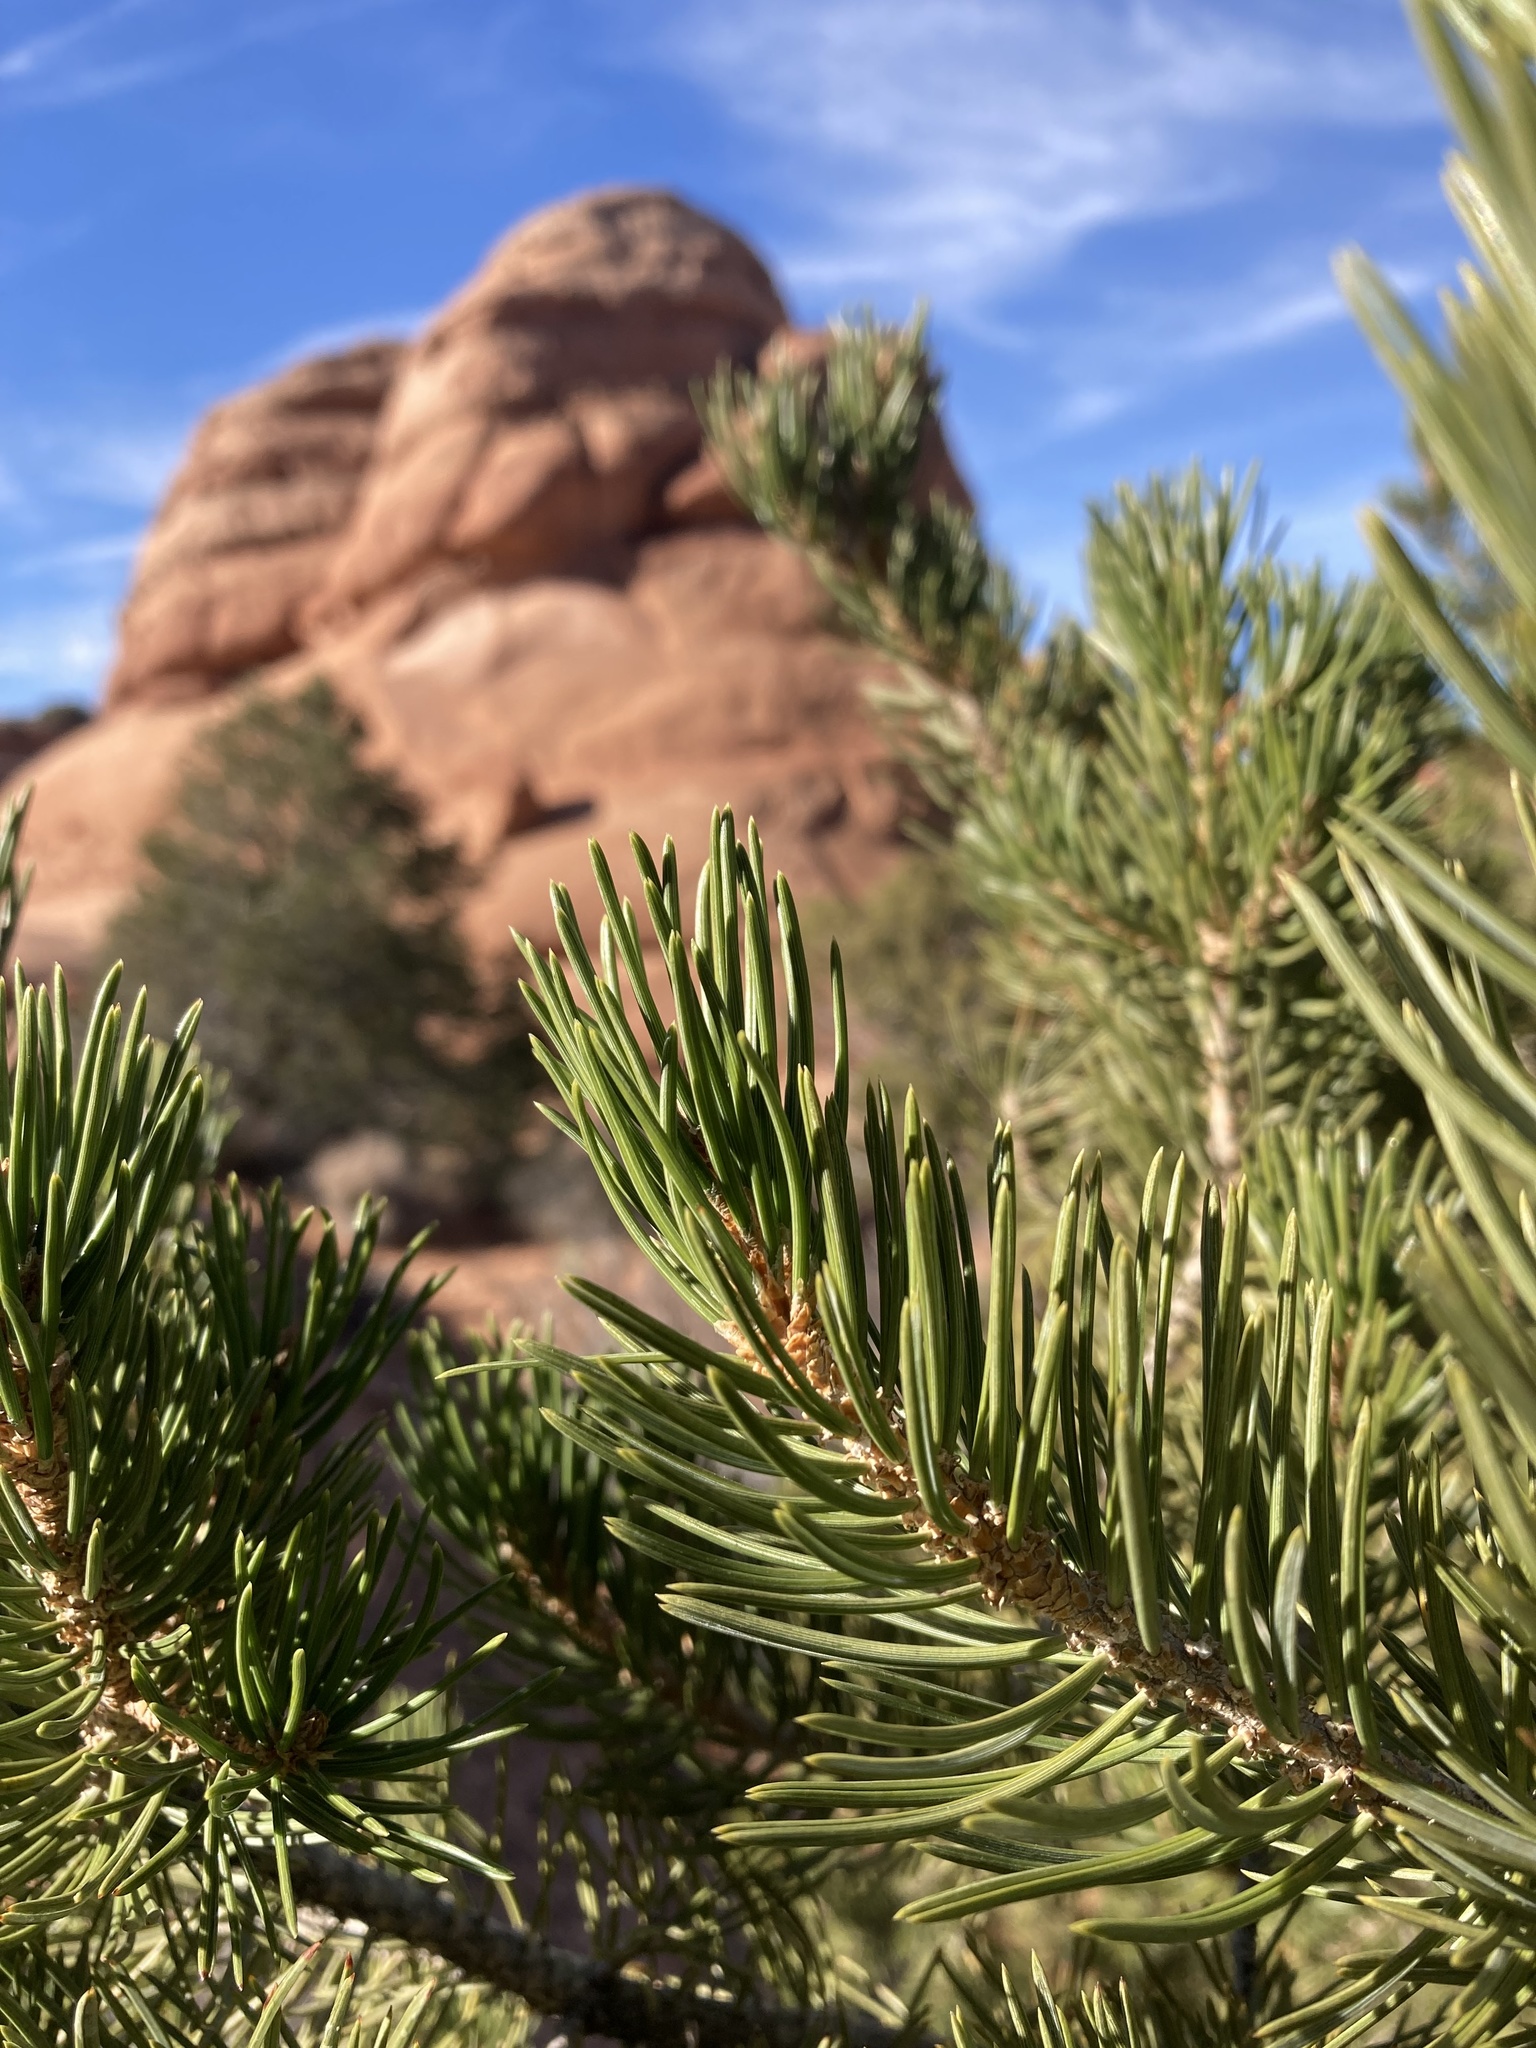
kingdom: Plantae
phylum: Tracheophyta
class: Pinopsida
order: Pinales
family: Pinaceae
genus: Pinus
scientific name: Pinus edulis
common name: Colorado pinyon
